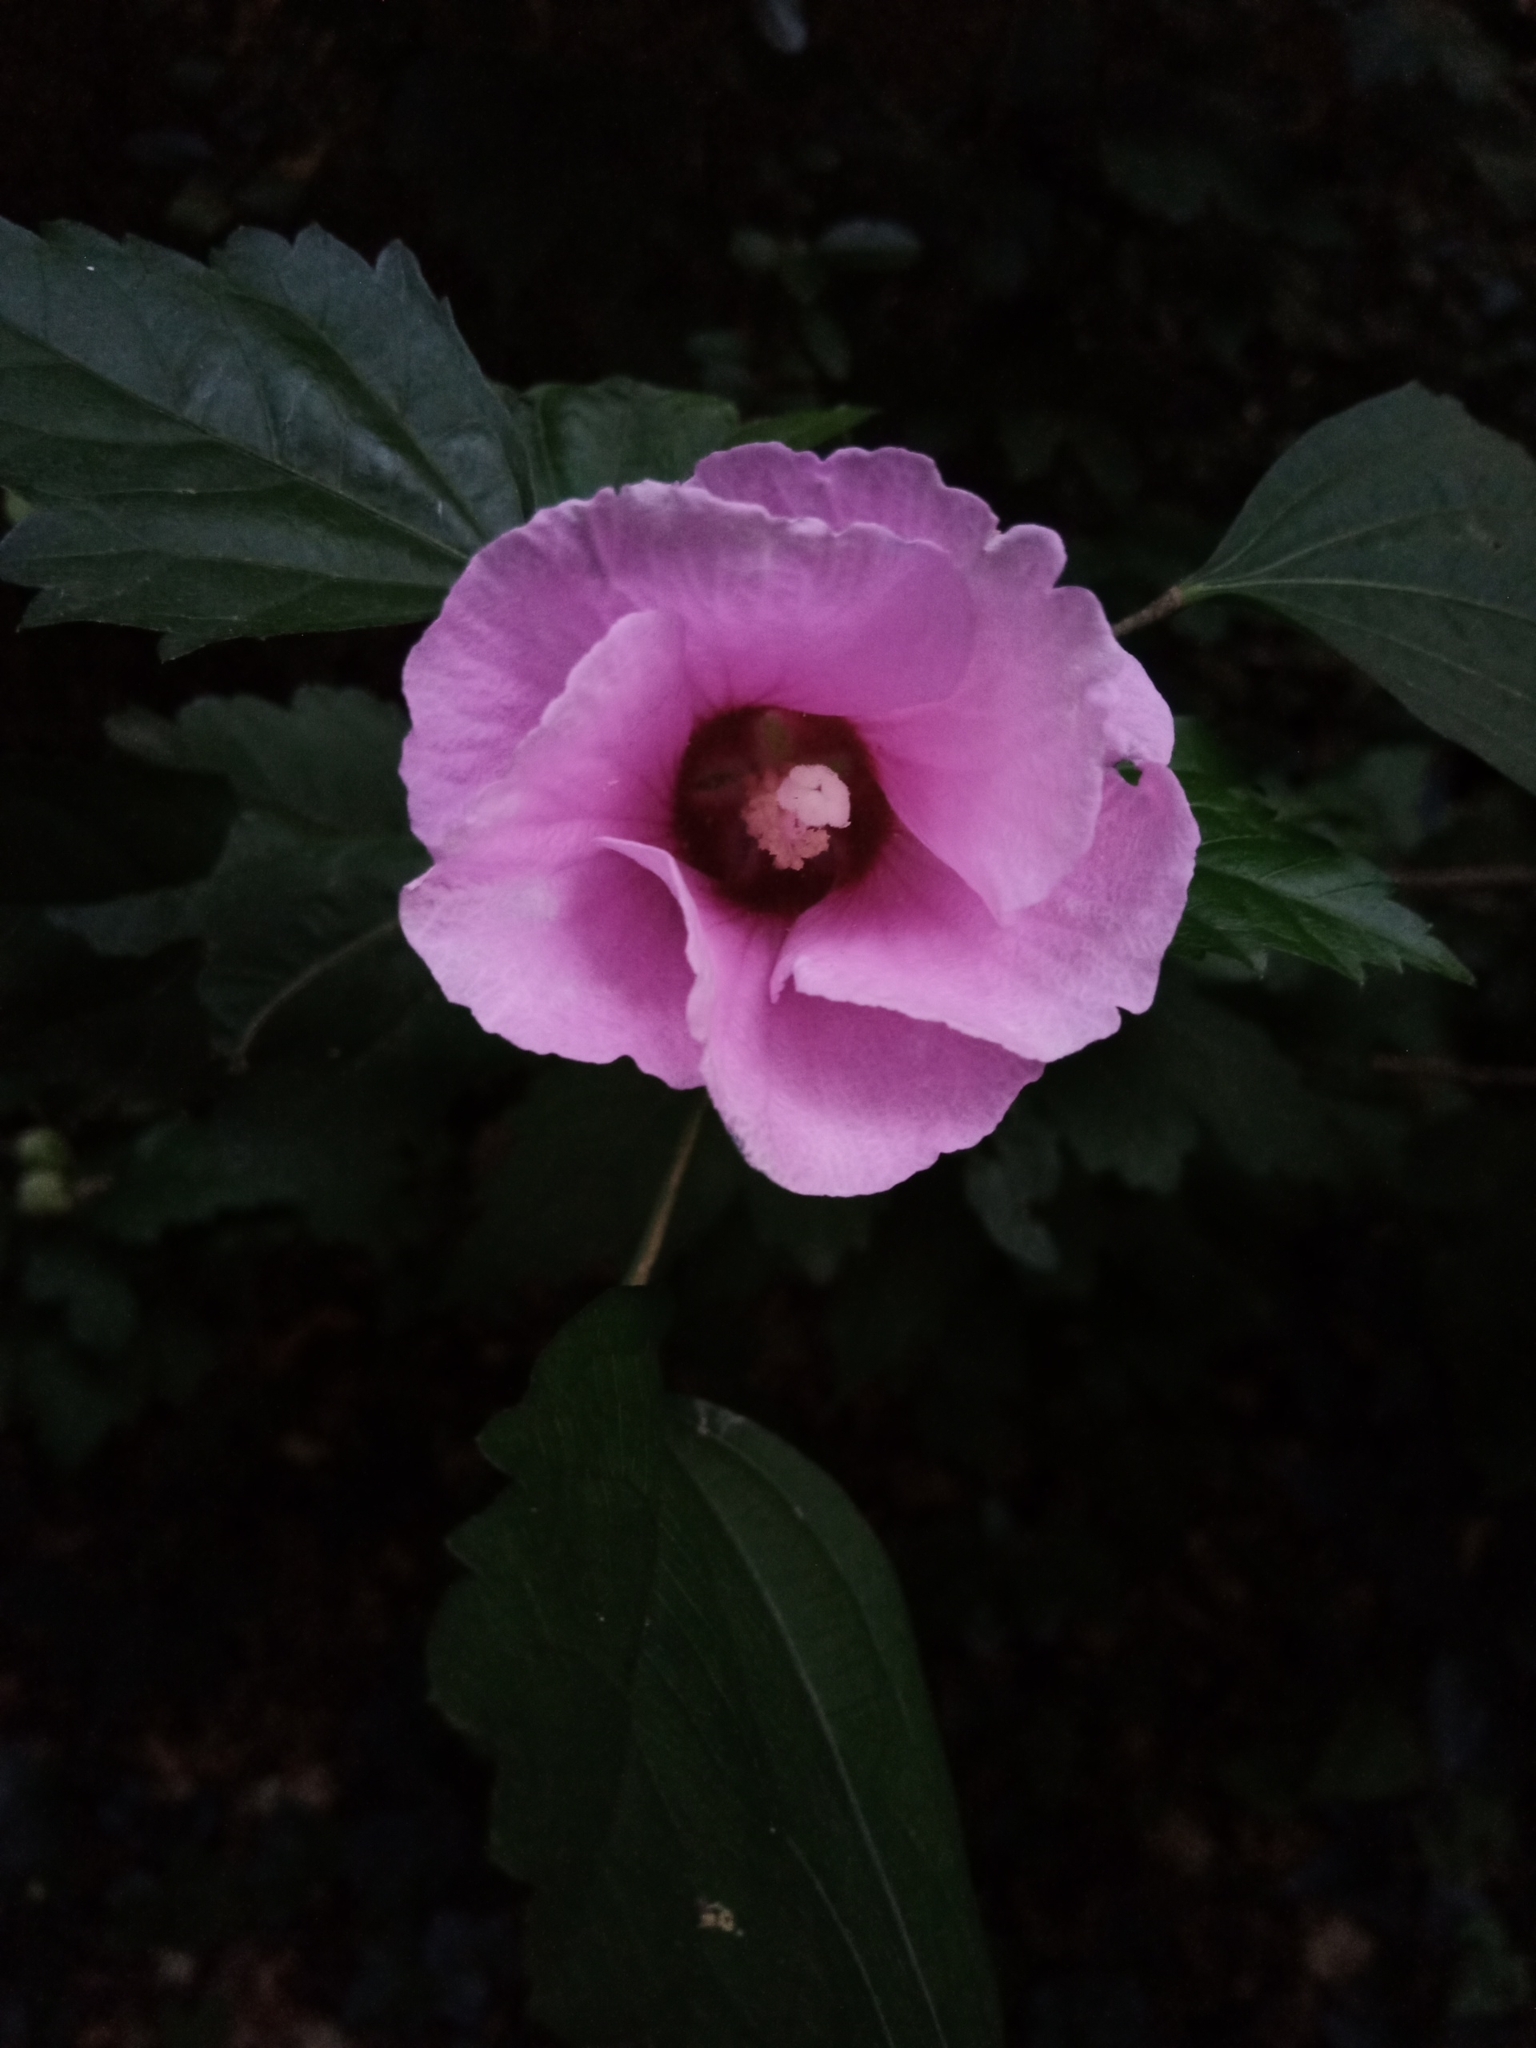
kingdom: Plantae
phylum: Tracheophyta
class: Magnoliopsida
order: Malvales
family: Malvaceae
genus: Hibiscus
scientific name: Hibiscus syriacus
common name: Syrian ketmia
